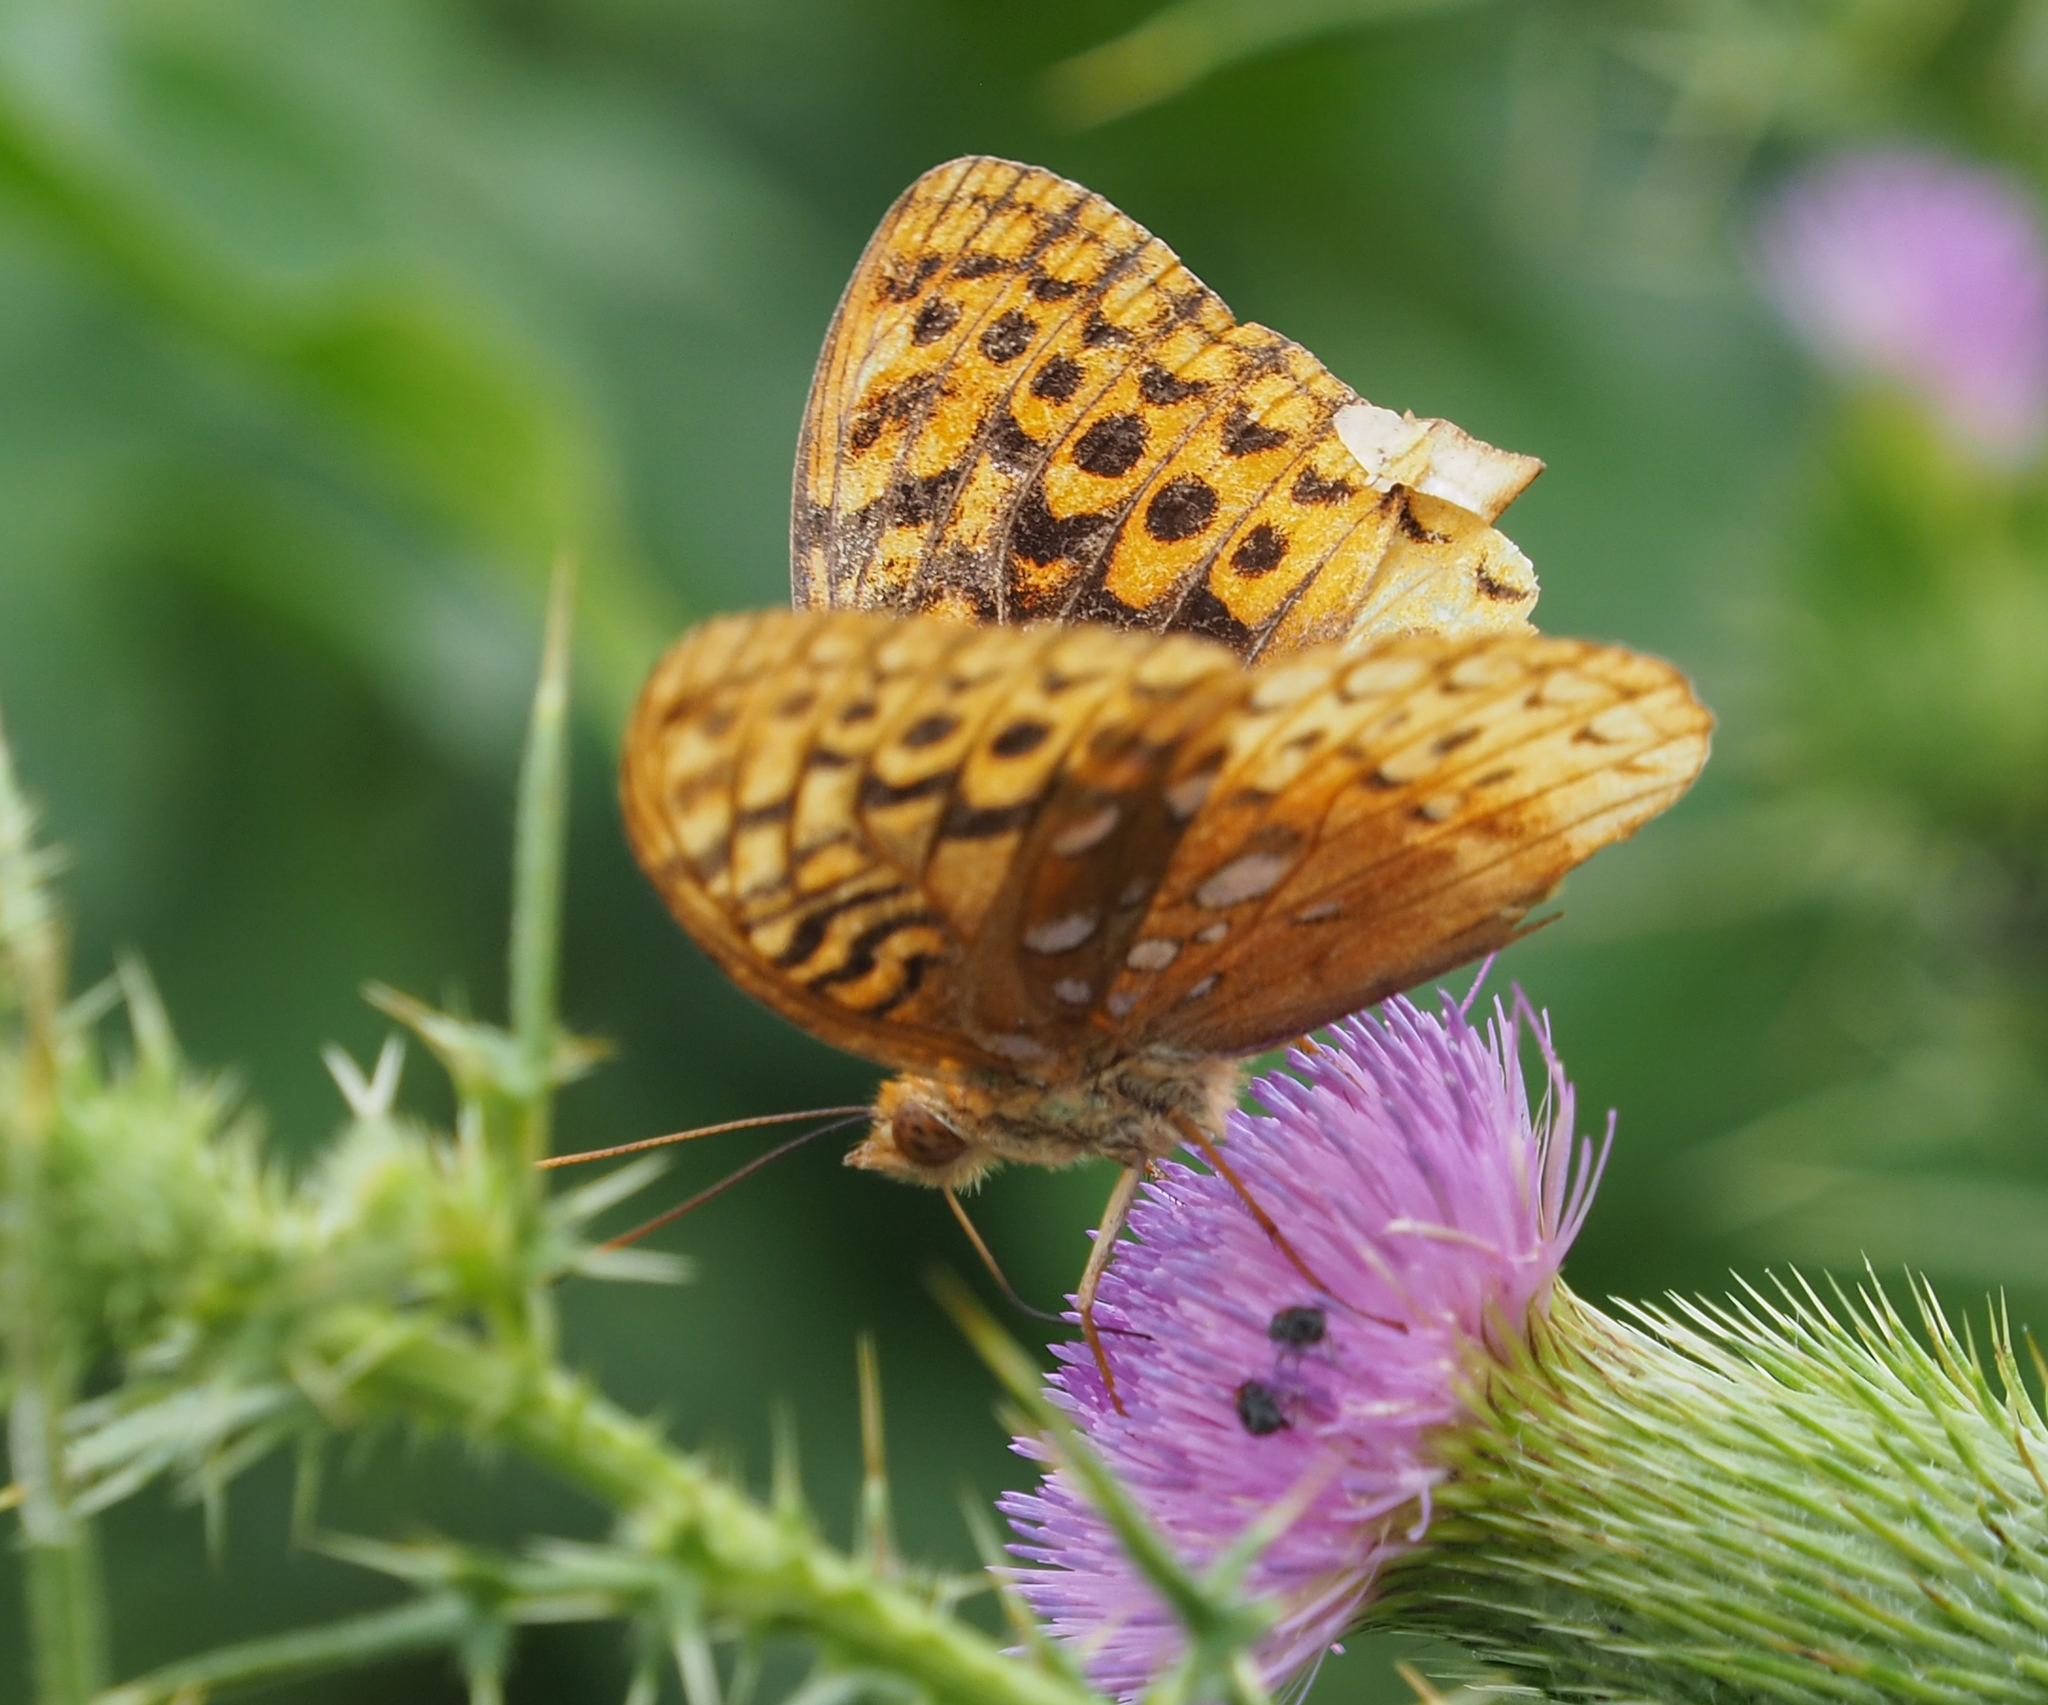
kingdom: Animalia
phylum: Arthropoda
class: Insecta
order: Lepidoptera
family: Nymphalidae
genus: Speyeria
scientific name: Speyeria cybele
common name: Great spangled fritillary
